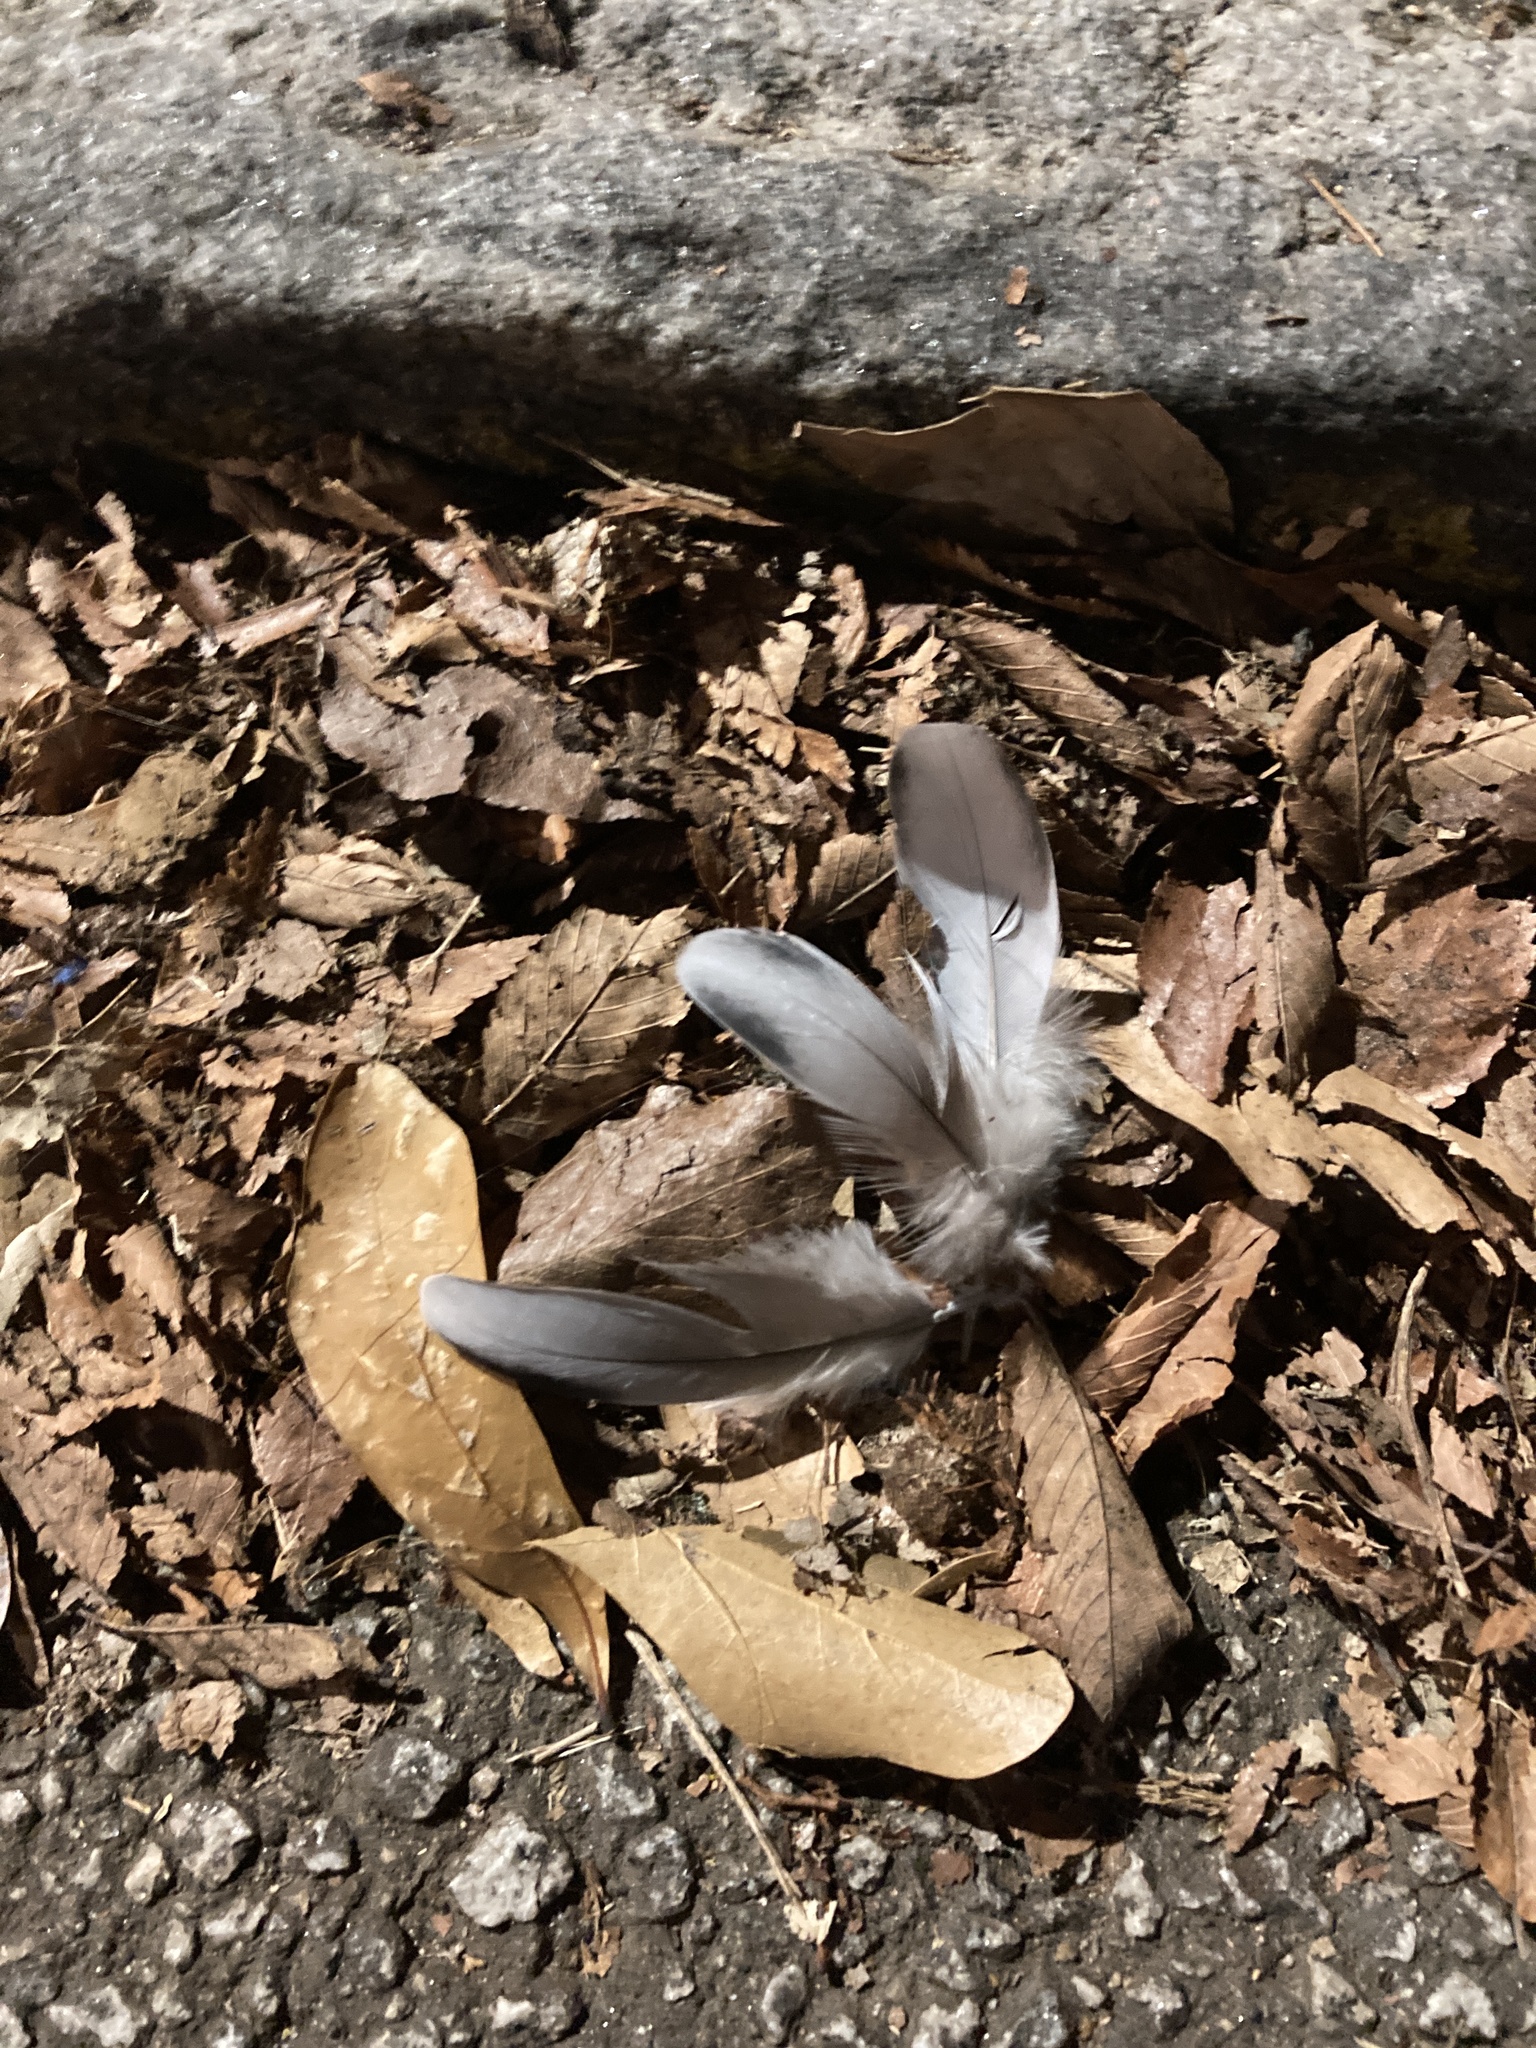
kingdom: Animalia
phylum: Chordata
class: Aves
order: Columbiformes
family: Columbidae
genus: Columba
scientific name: Columba livia
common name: Rock pigeon
